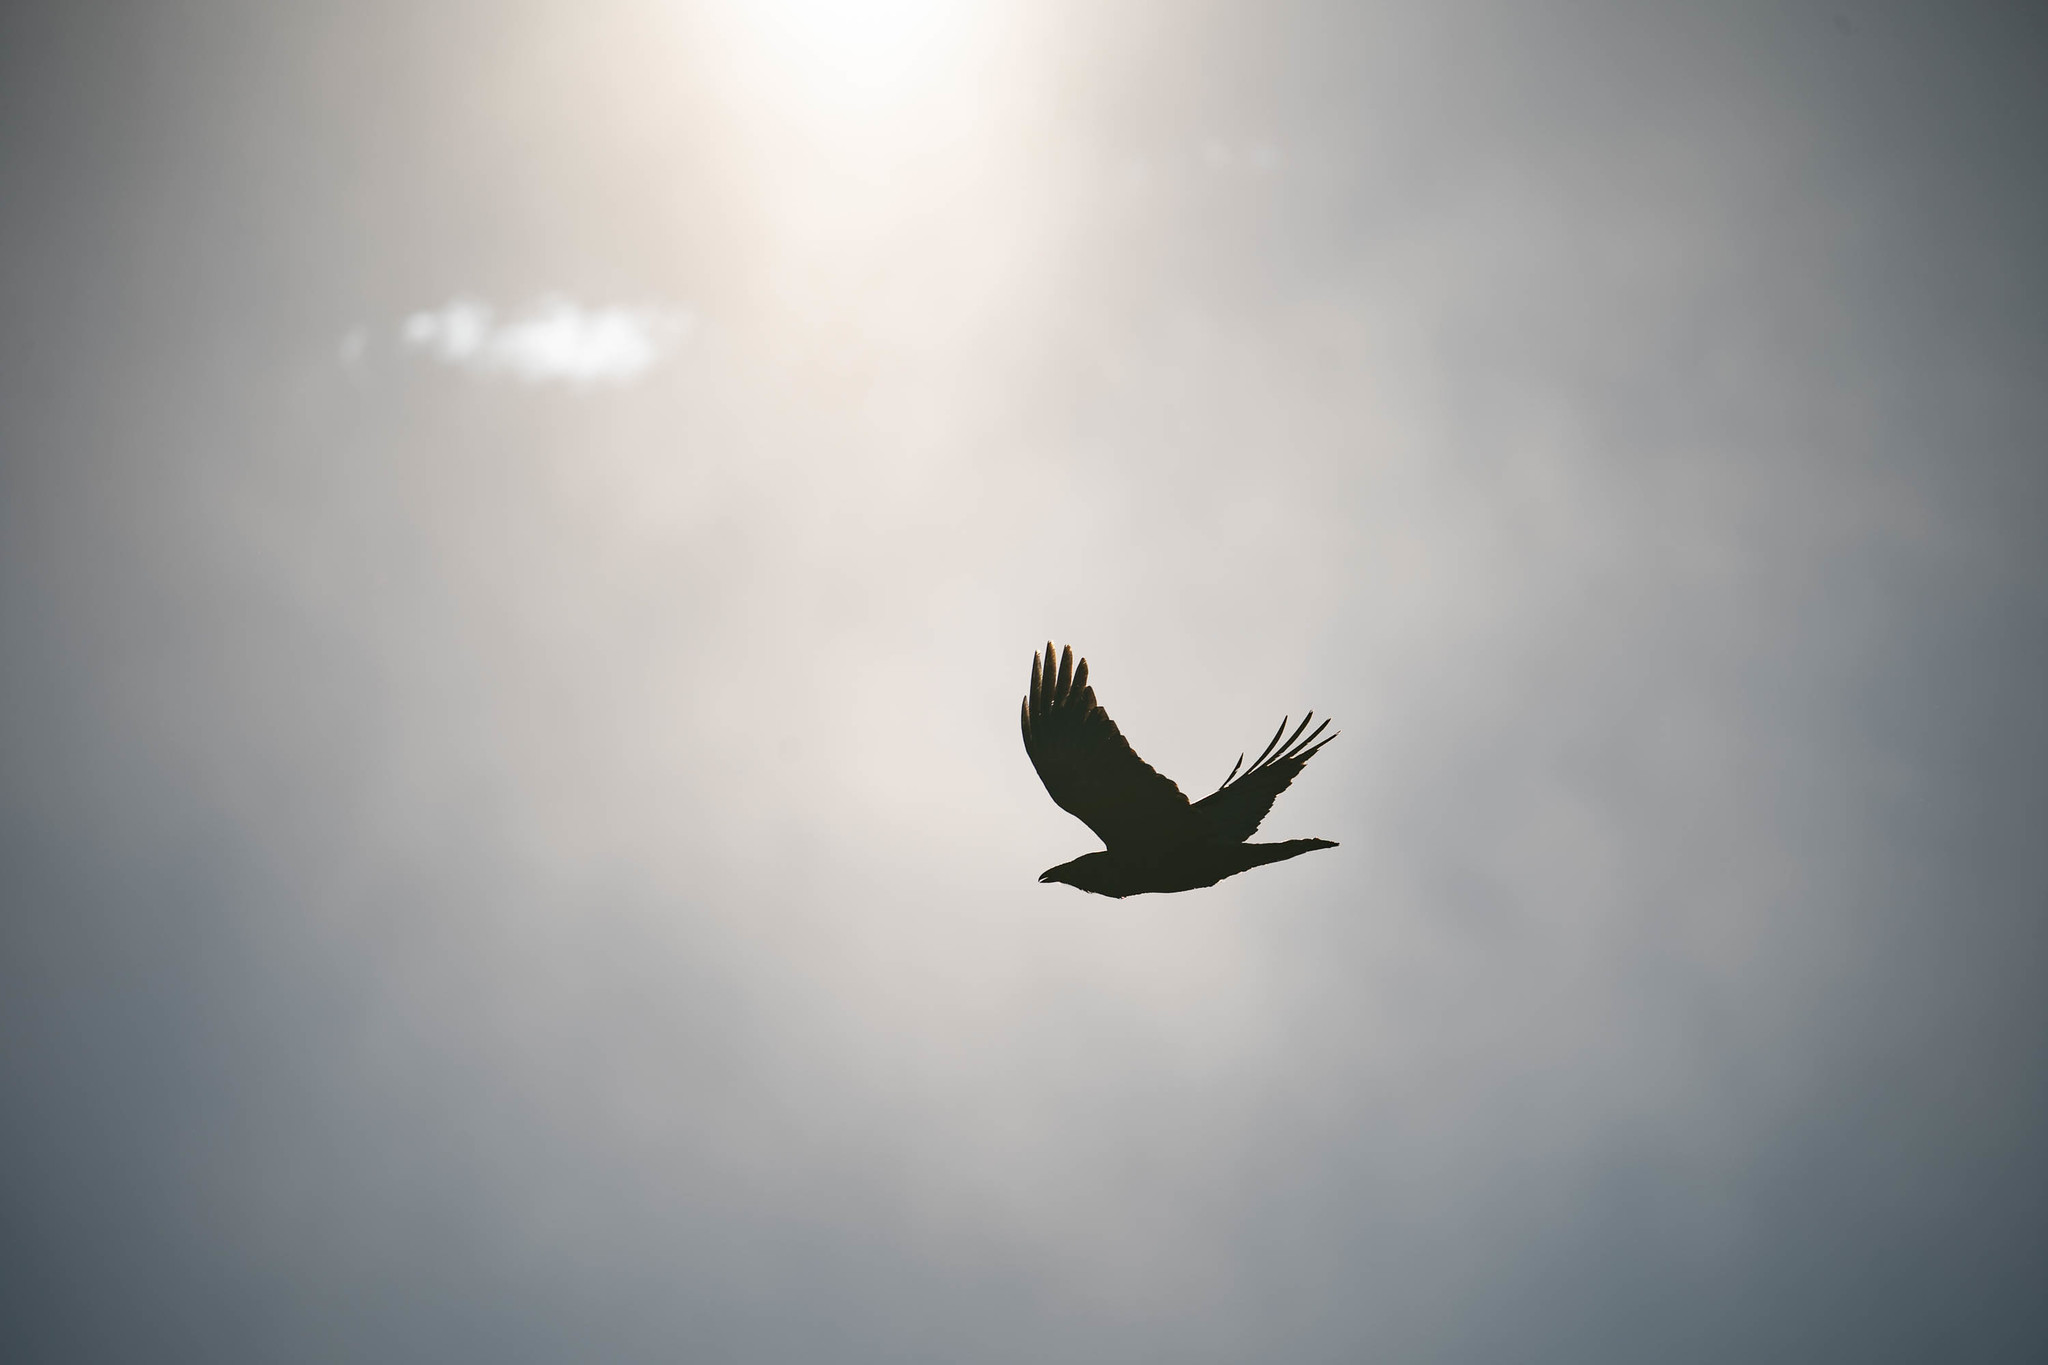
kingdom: Animalia
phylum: Chordata
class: Aves
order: Passeriformes
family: Corvidae
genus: Corvus
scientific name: Corvus corax
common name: Common raven
